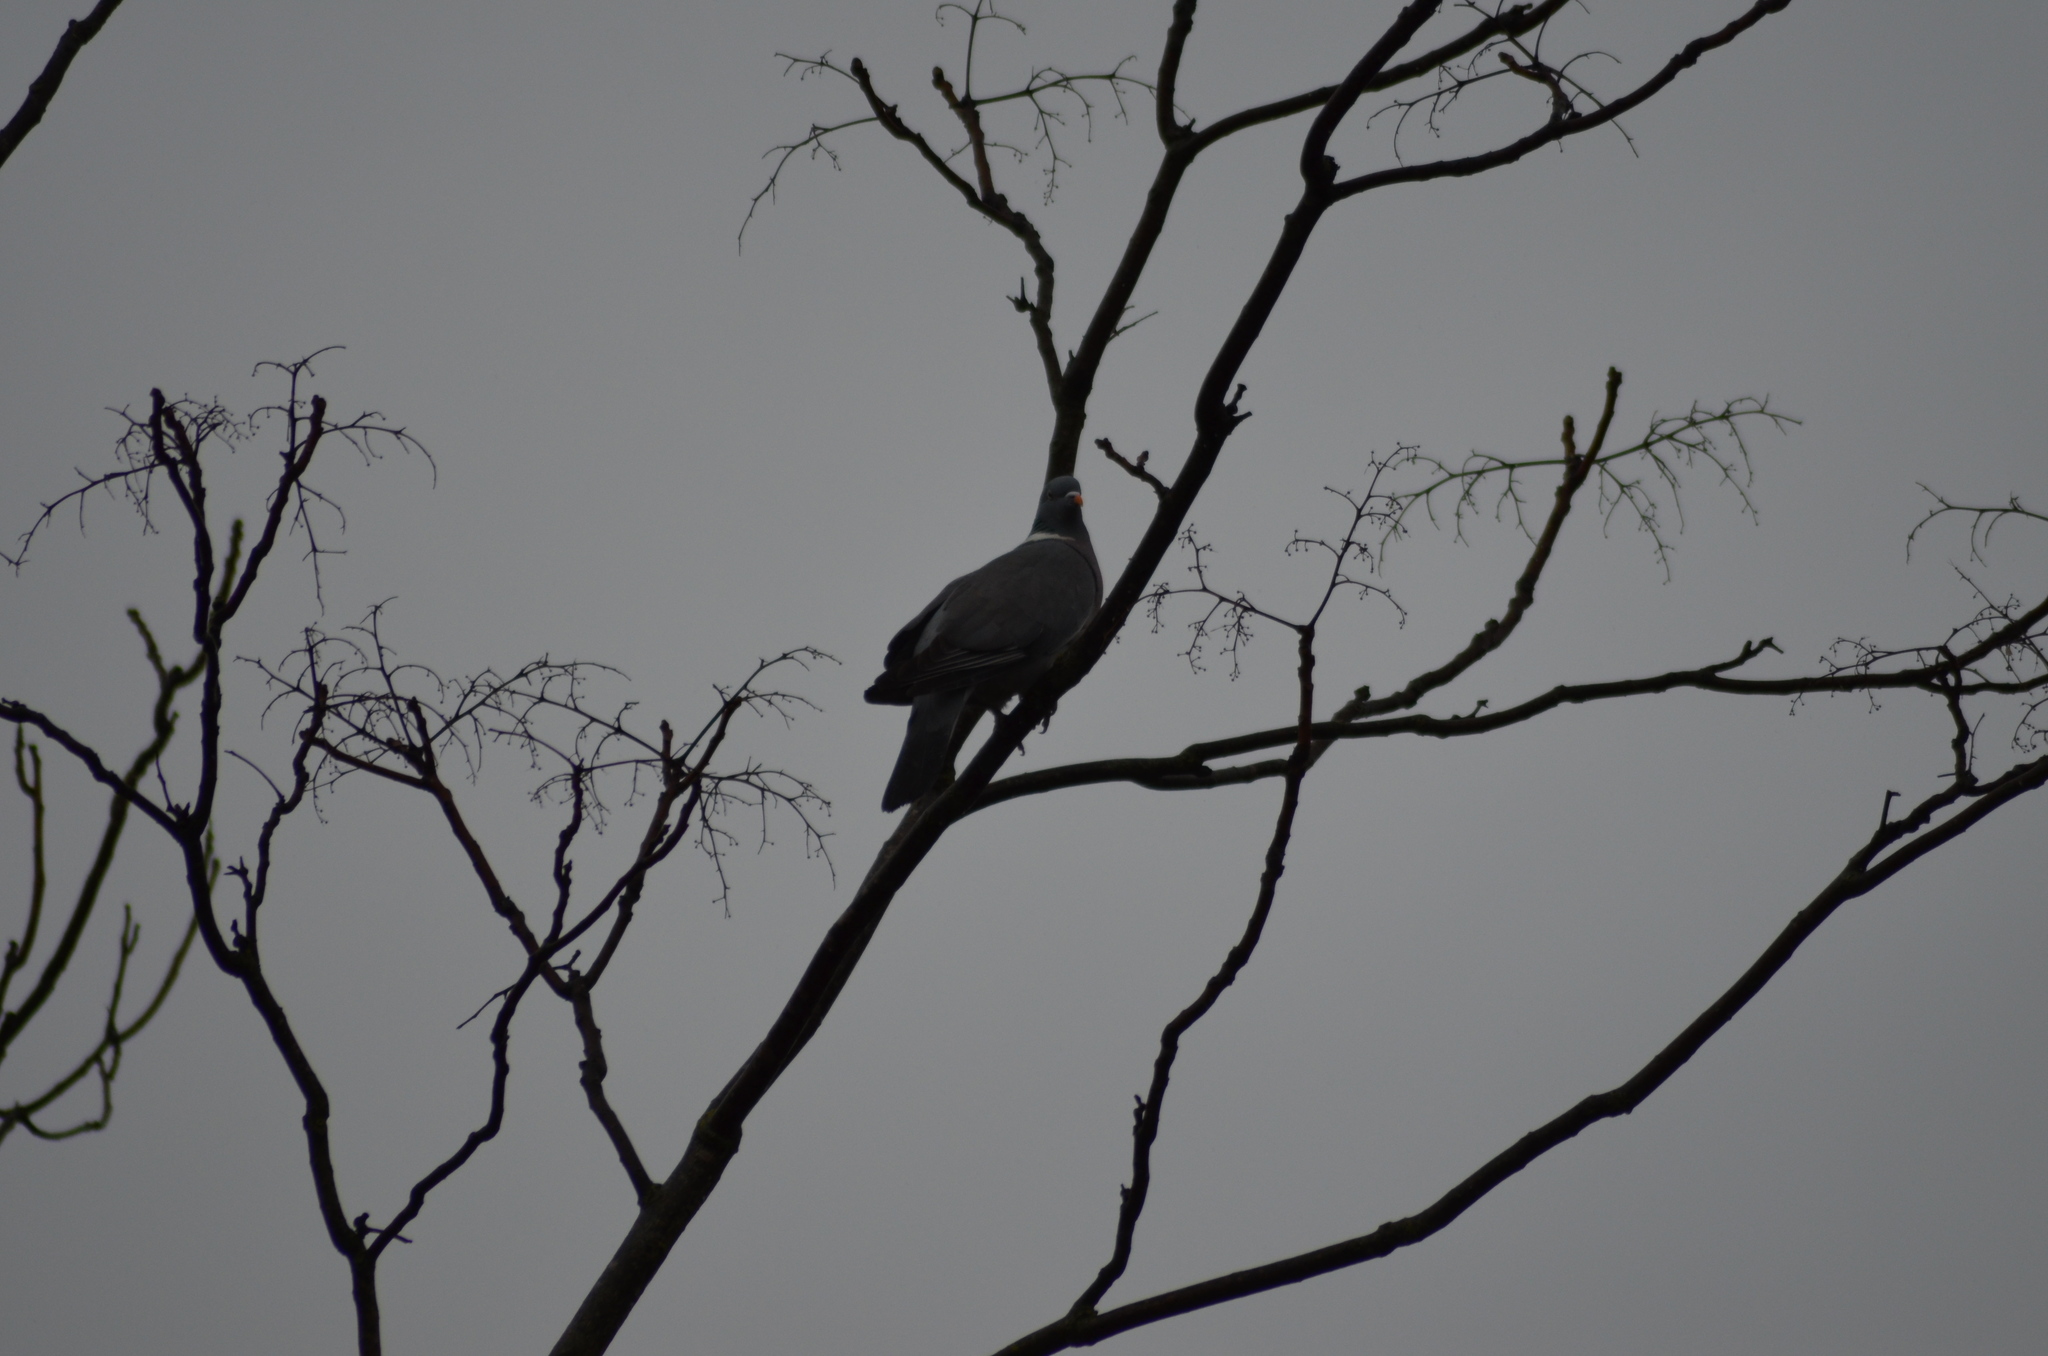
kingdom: Animalia
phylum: Chordata
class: Aves
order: Columbiformes
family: Columbidae
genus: Columba
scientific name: Columba palumbus
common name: Common wood pigeon
